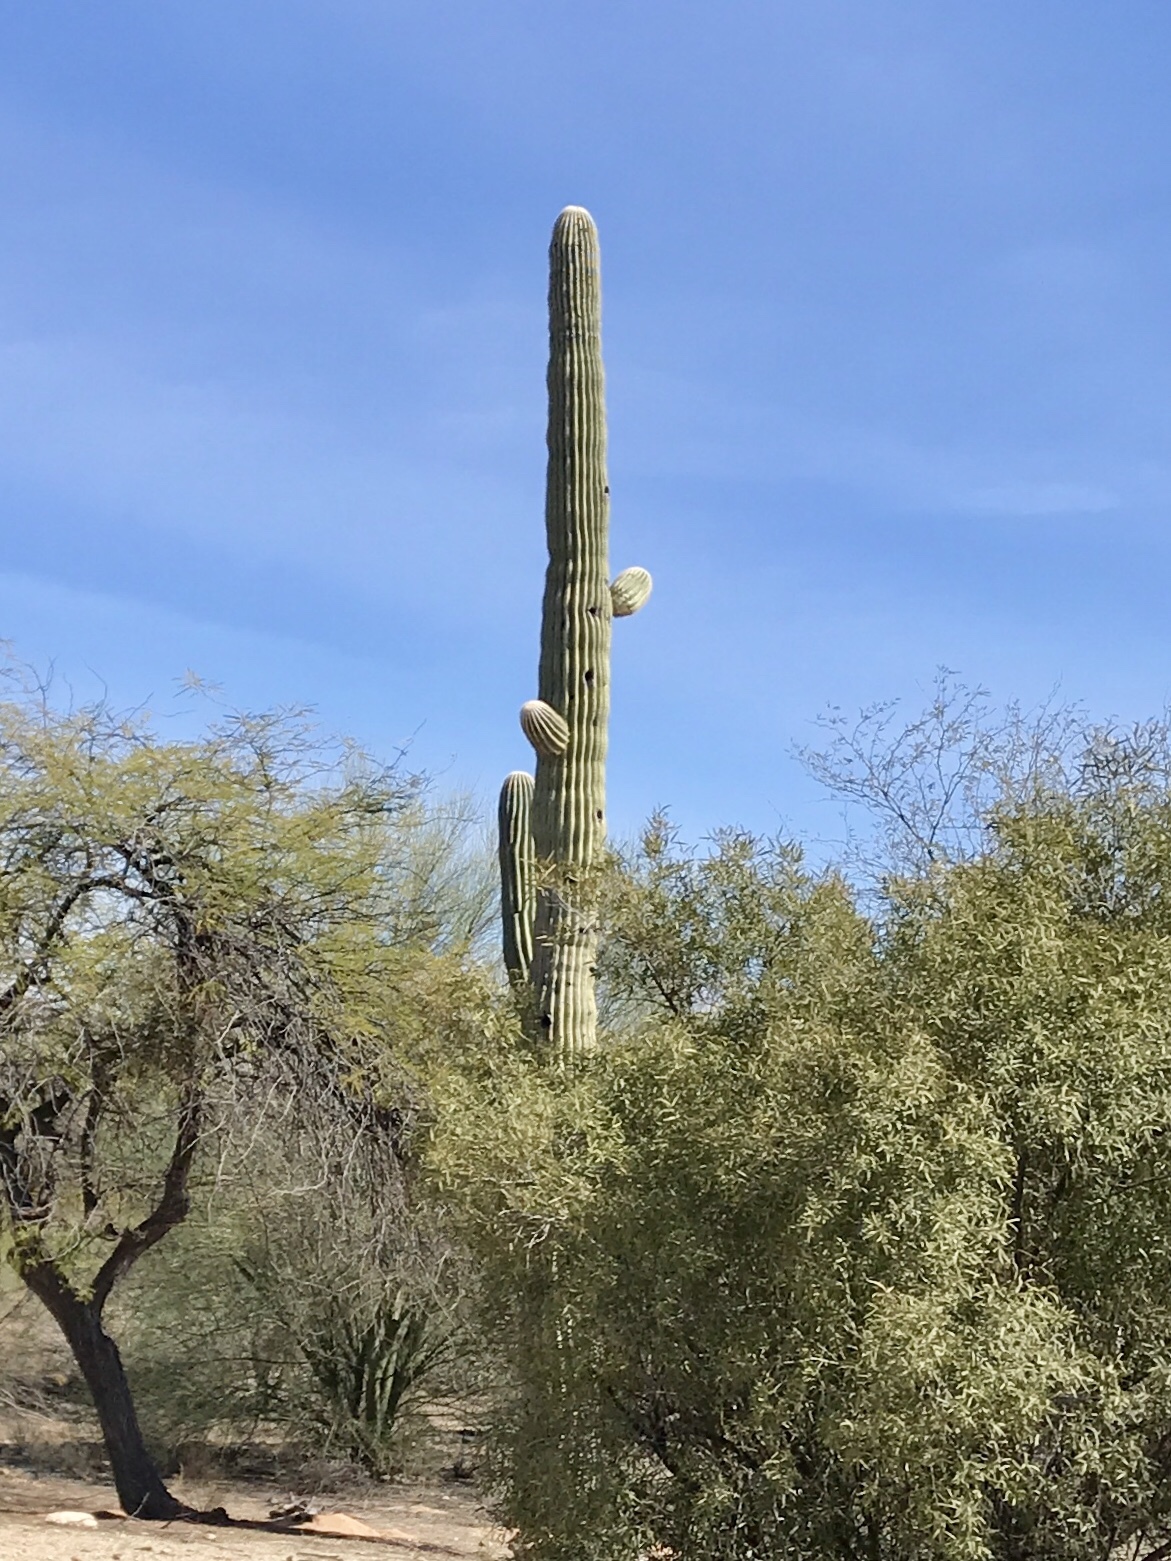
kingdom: Plantae
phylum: Tracheophyta
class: Magnoliopsida
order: Caryophyllales
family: Cactaceae
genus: Carnegiea
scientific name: Carnegiea gigantea
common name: Saguaro
